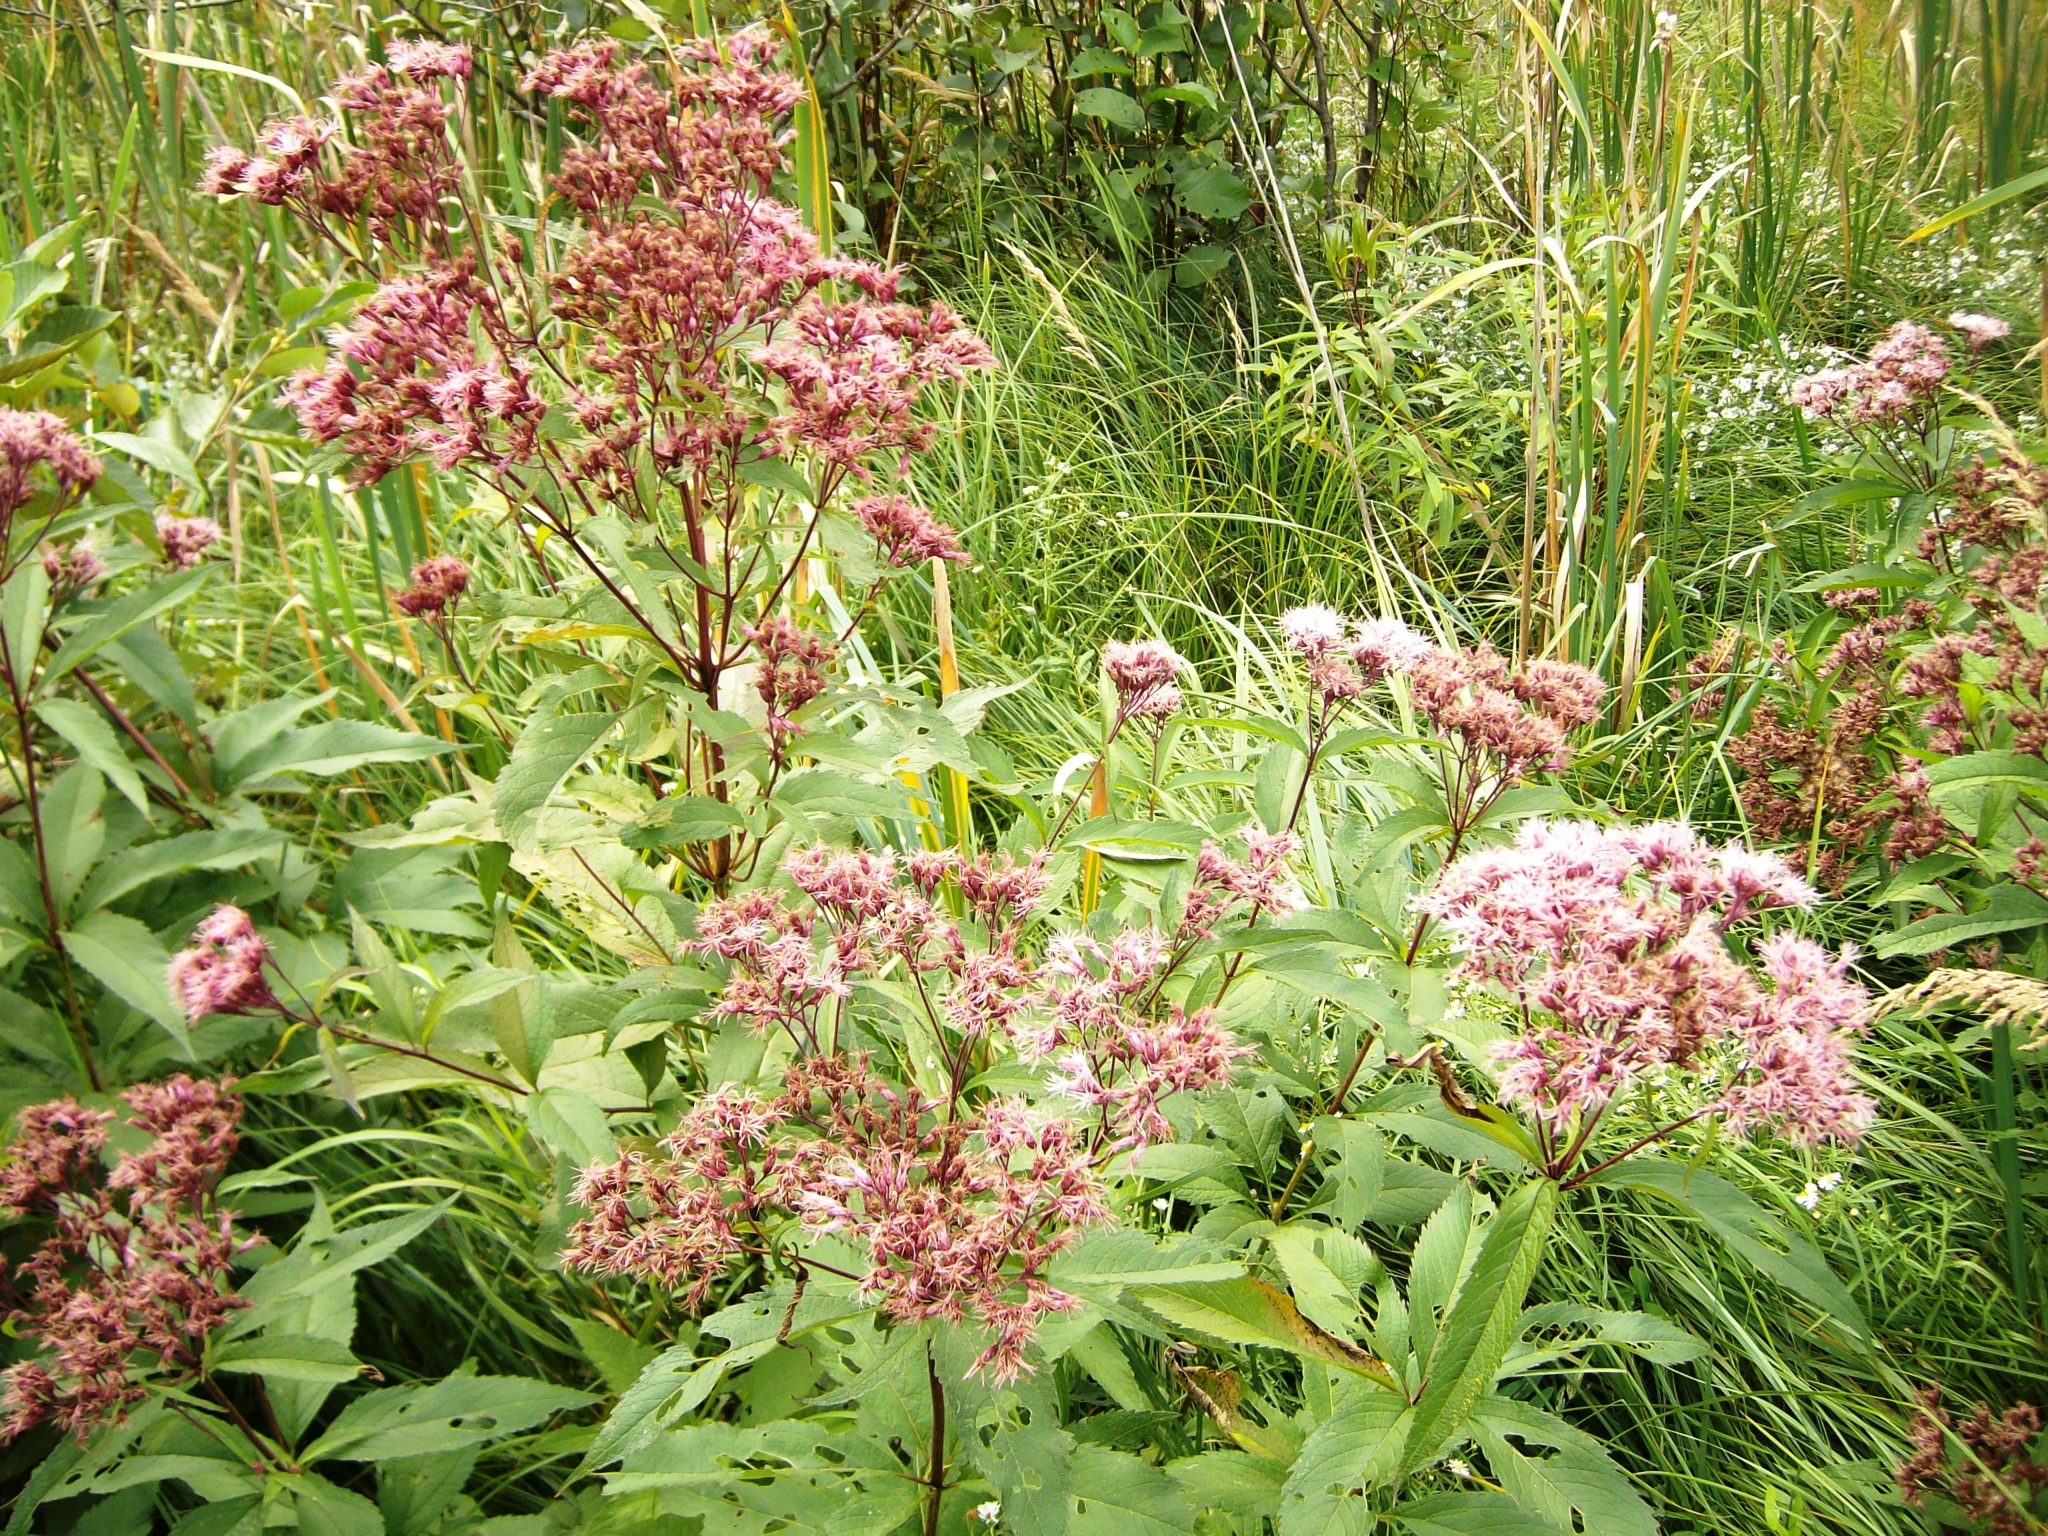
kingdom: Plantae
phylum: Tracheophyta
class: Magnoliopsida
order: Asterales
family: Asteraceae
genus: Eutrochium
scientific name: Eutrochium maculatum
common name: Spotted joe pye weed
